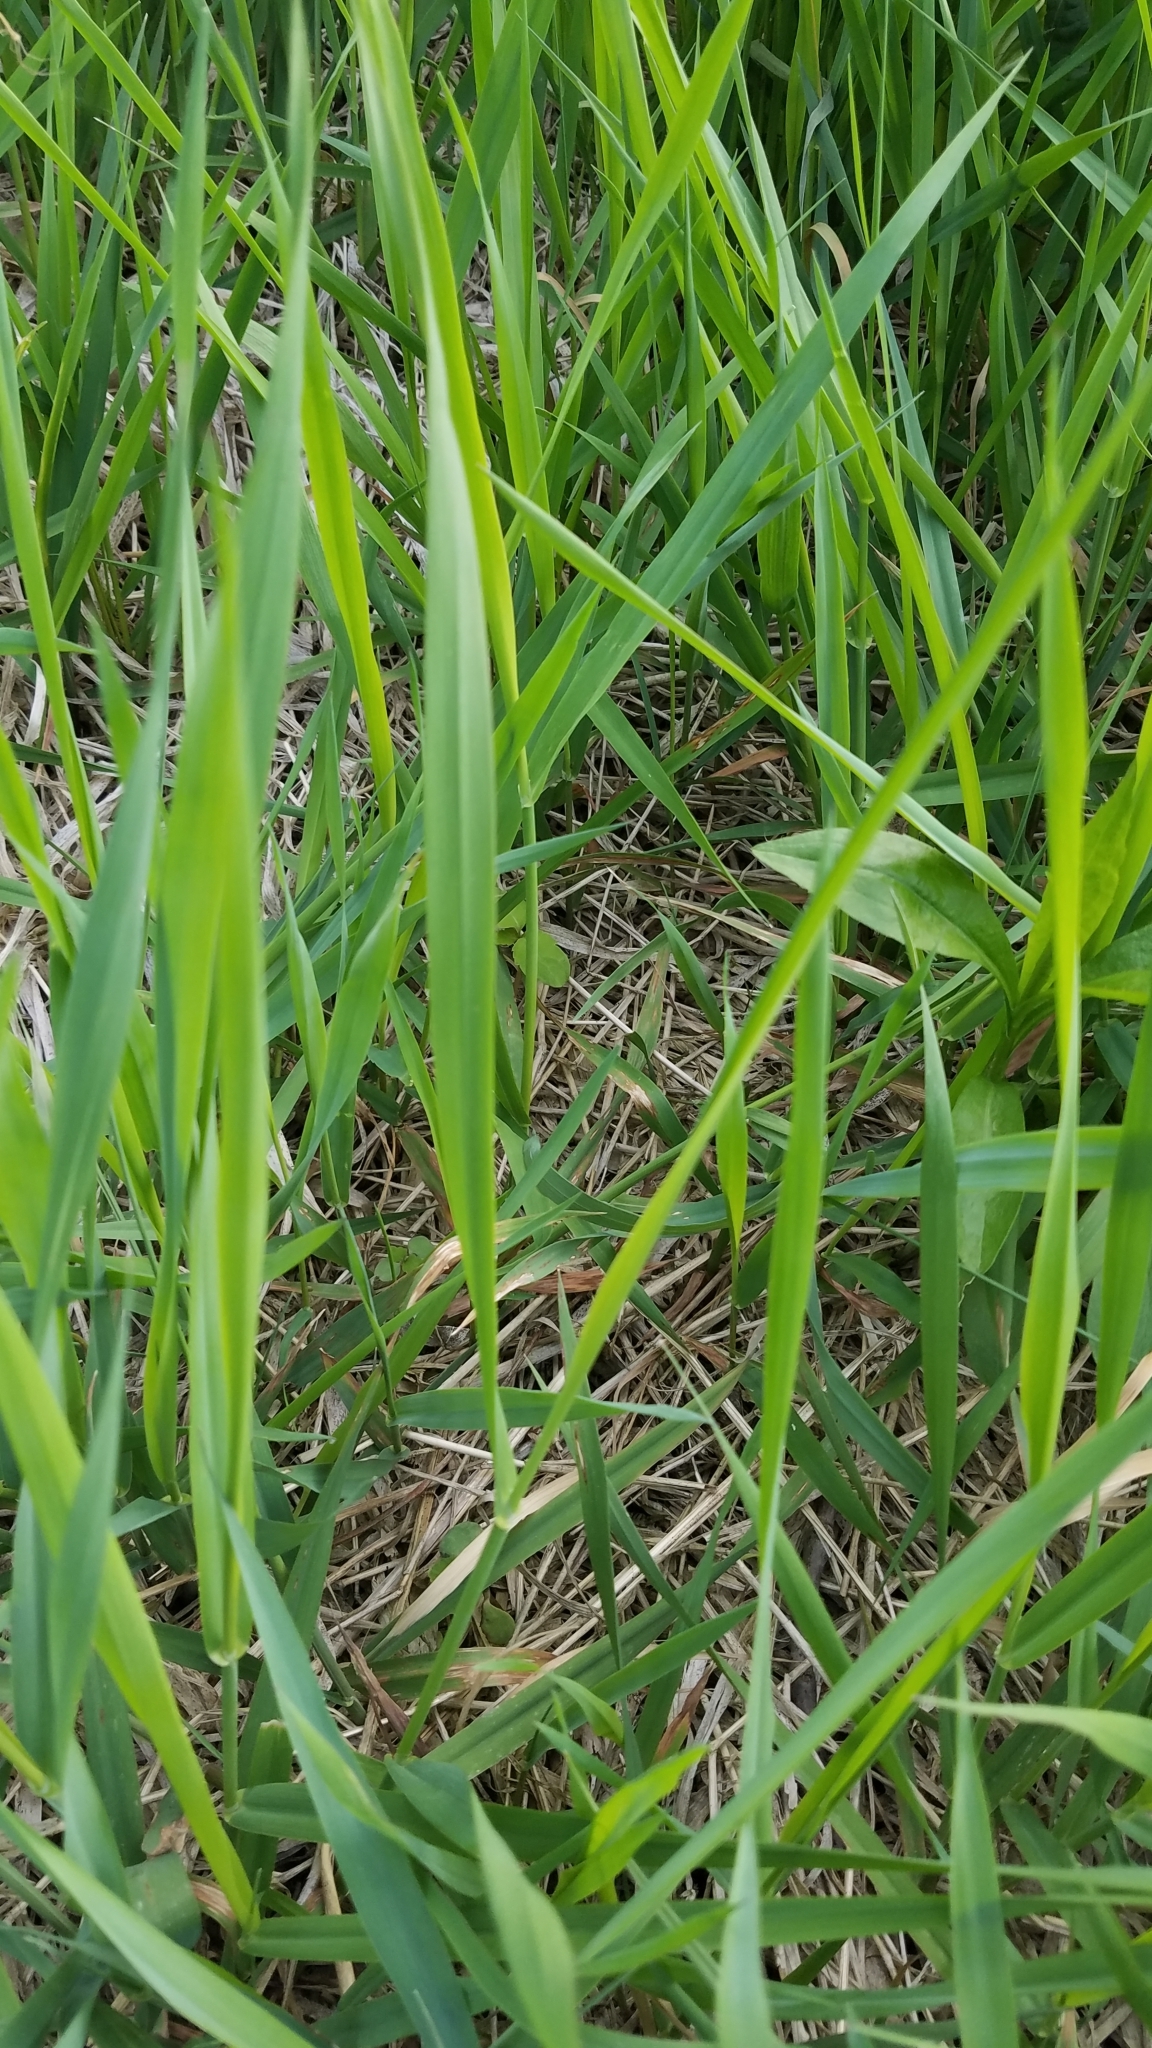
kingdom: Plantae
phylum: Tracheophyta
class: Liliopsida
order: Poales
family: Poaceae
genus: Phalaris
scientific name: Phalaris arundinacea
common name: Reed canary-grass
